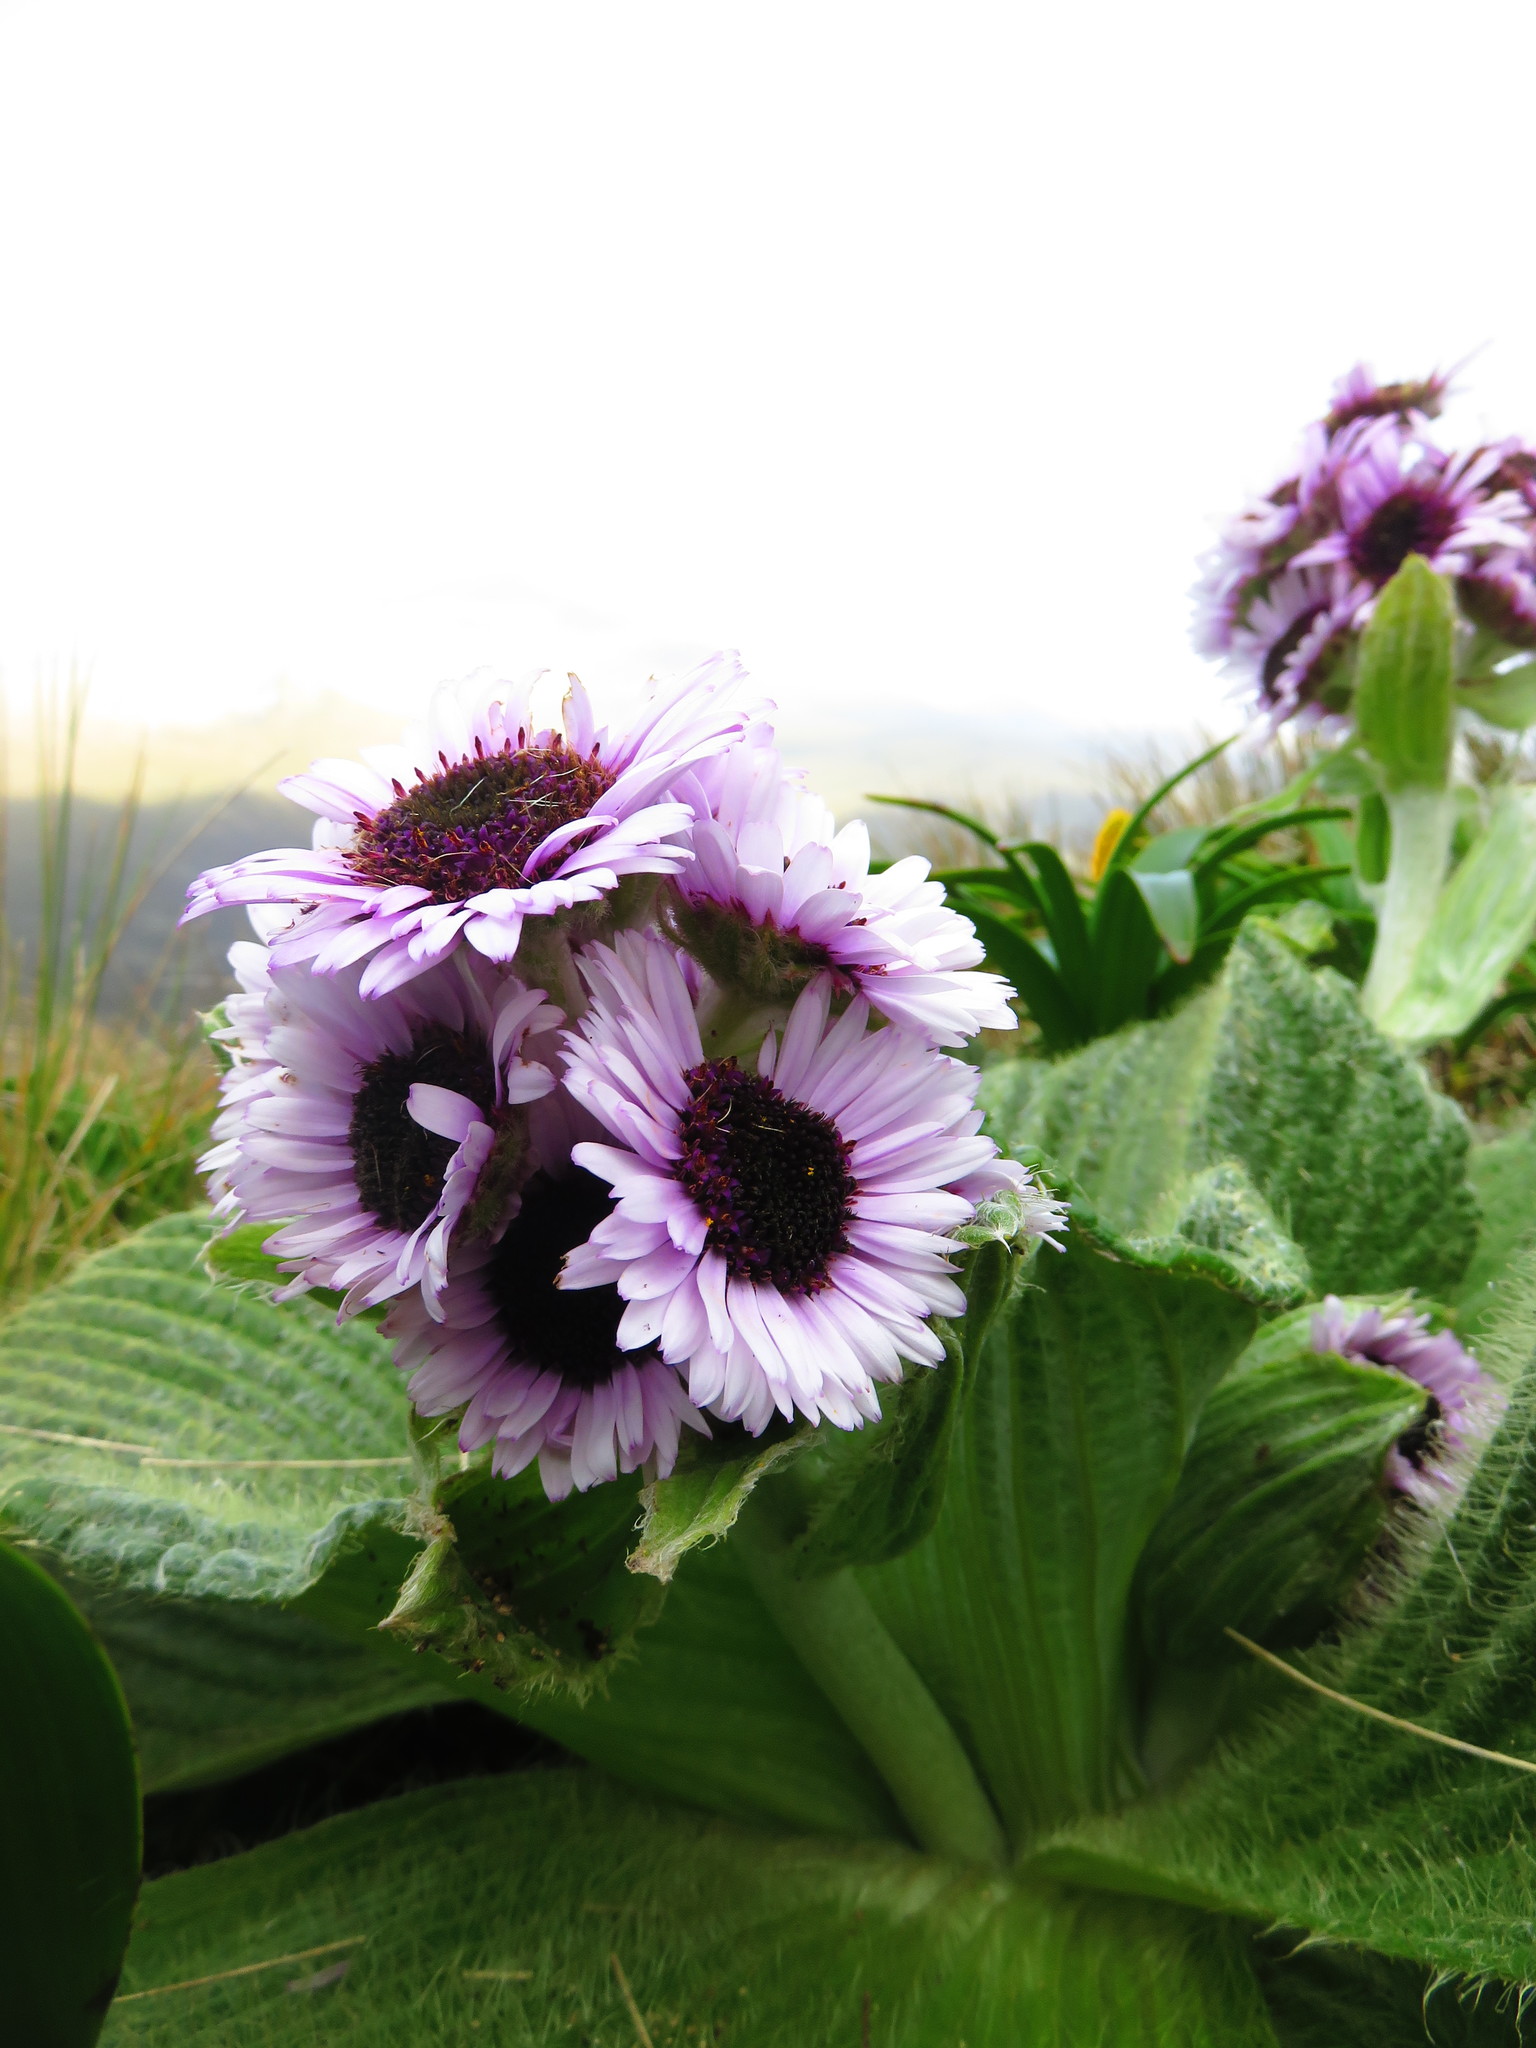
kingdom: Plantae
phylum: Tracheophyta
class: Magnoliopsida
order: Asterales
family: Asteraceae
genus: Pleurophyllum
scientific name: Pleurophyllum speciosum
